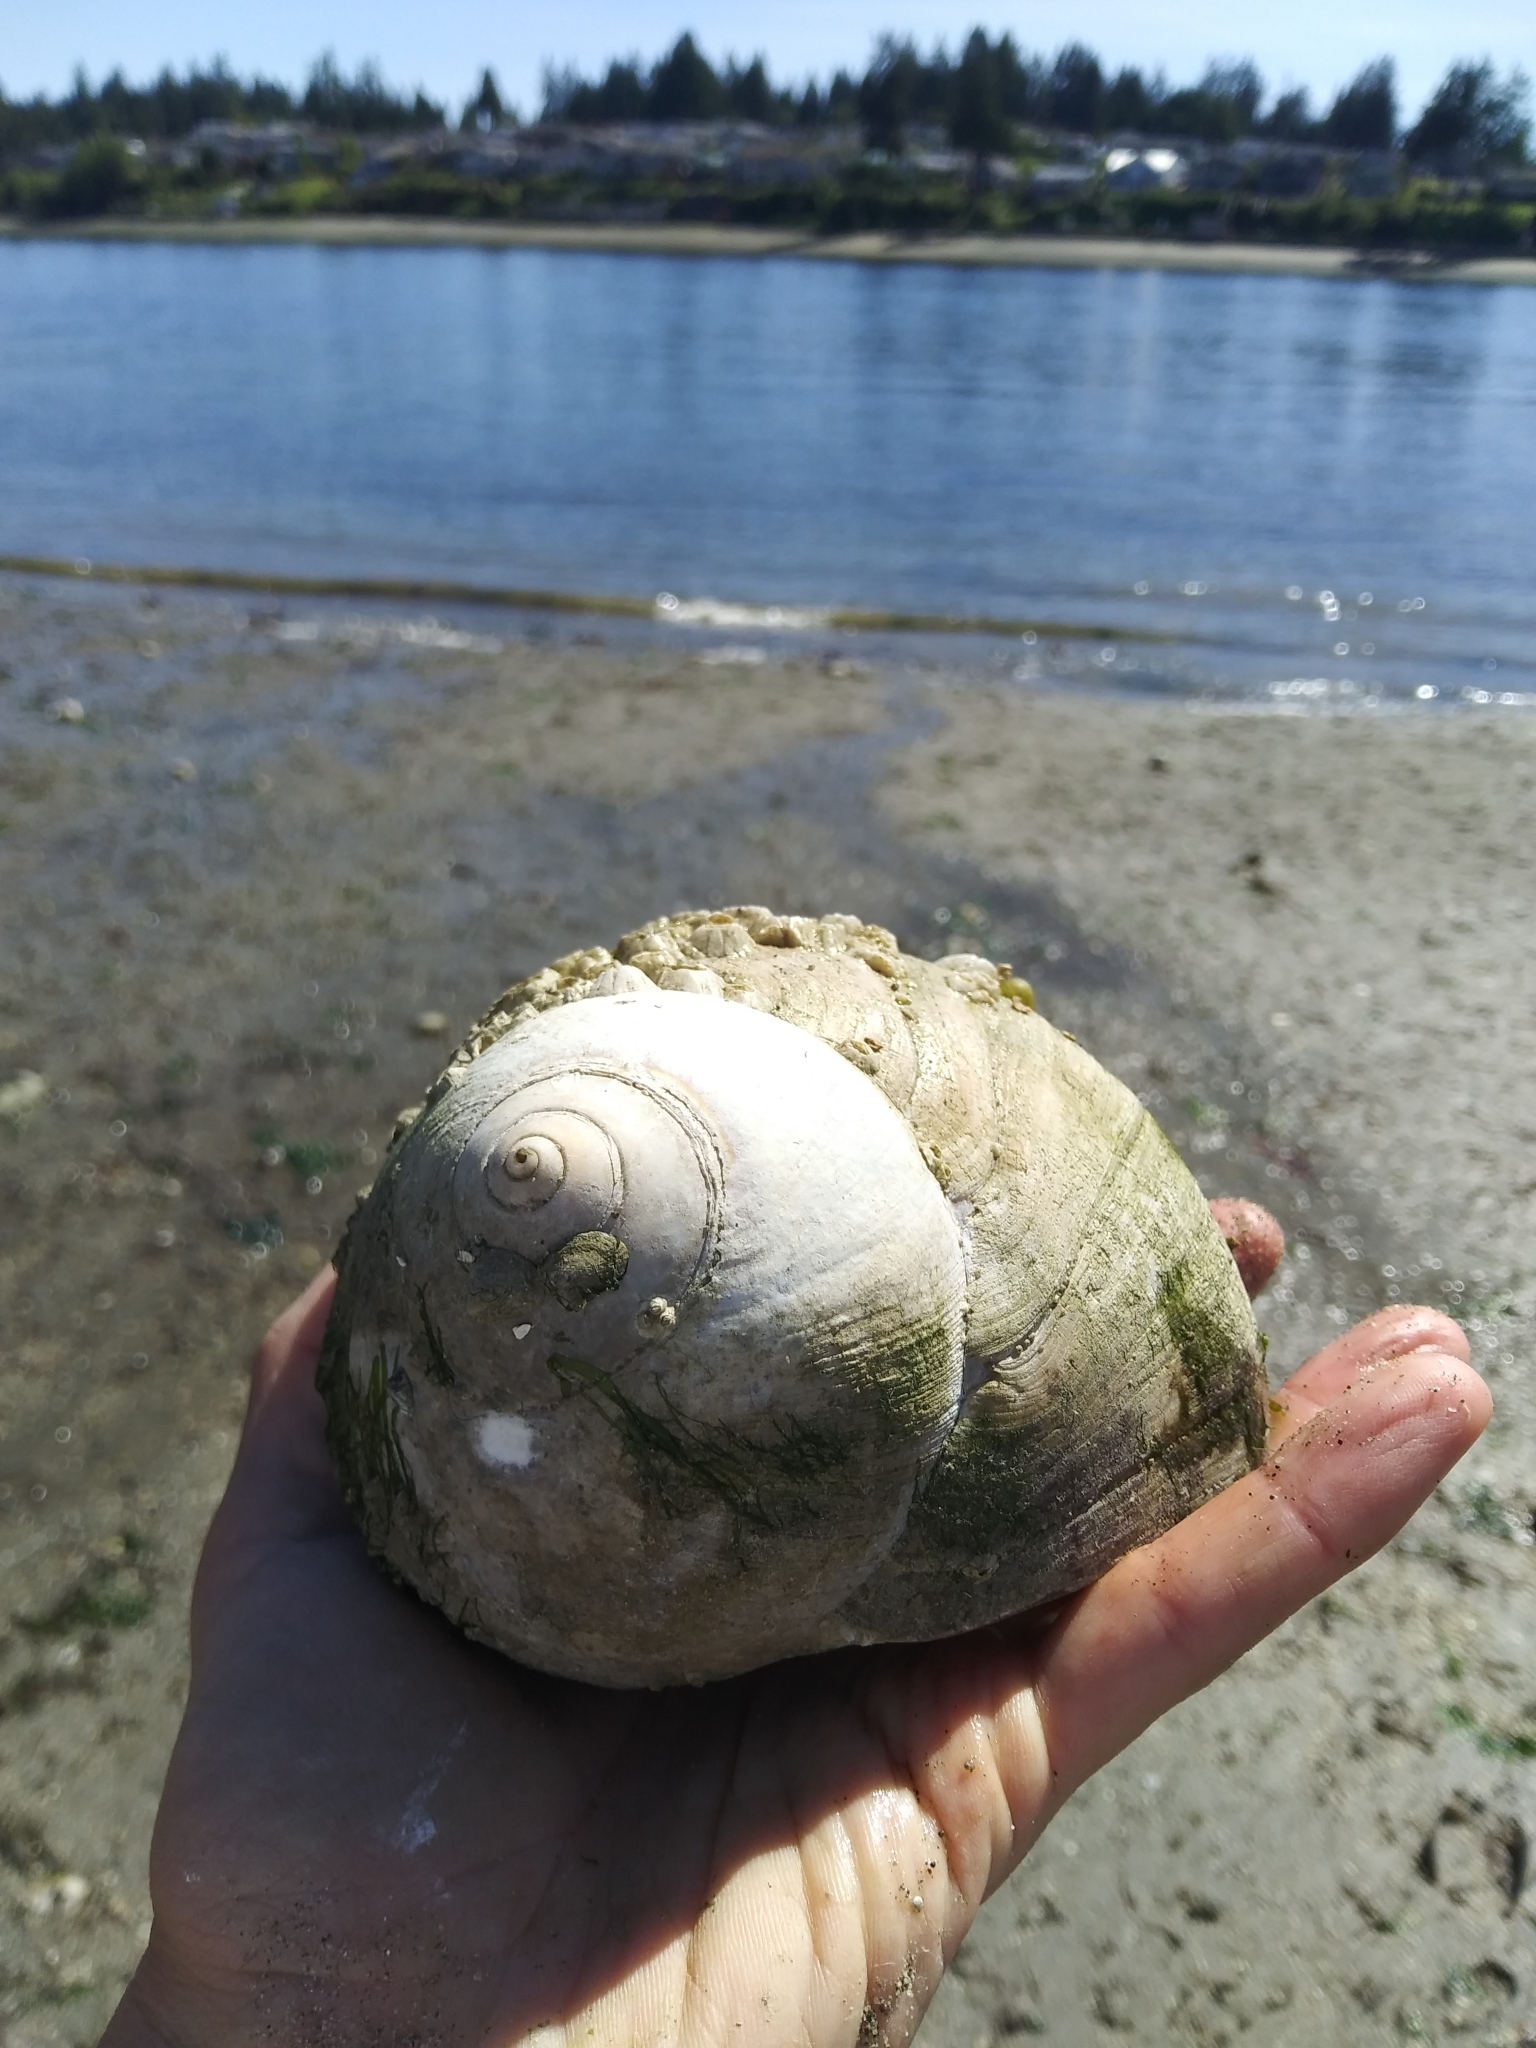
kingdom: Animalia
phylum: Mollusca
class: Gastropoda
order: Littorinimorpha
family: Naticidae
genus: Neverita
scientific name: Neverita lewisii
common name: Lewis' moonsnail
